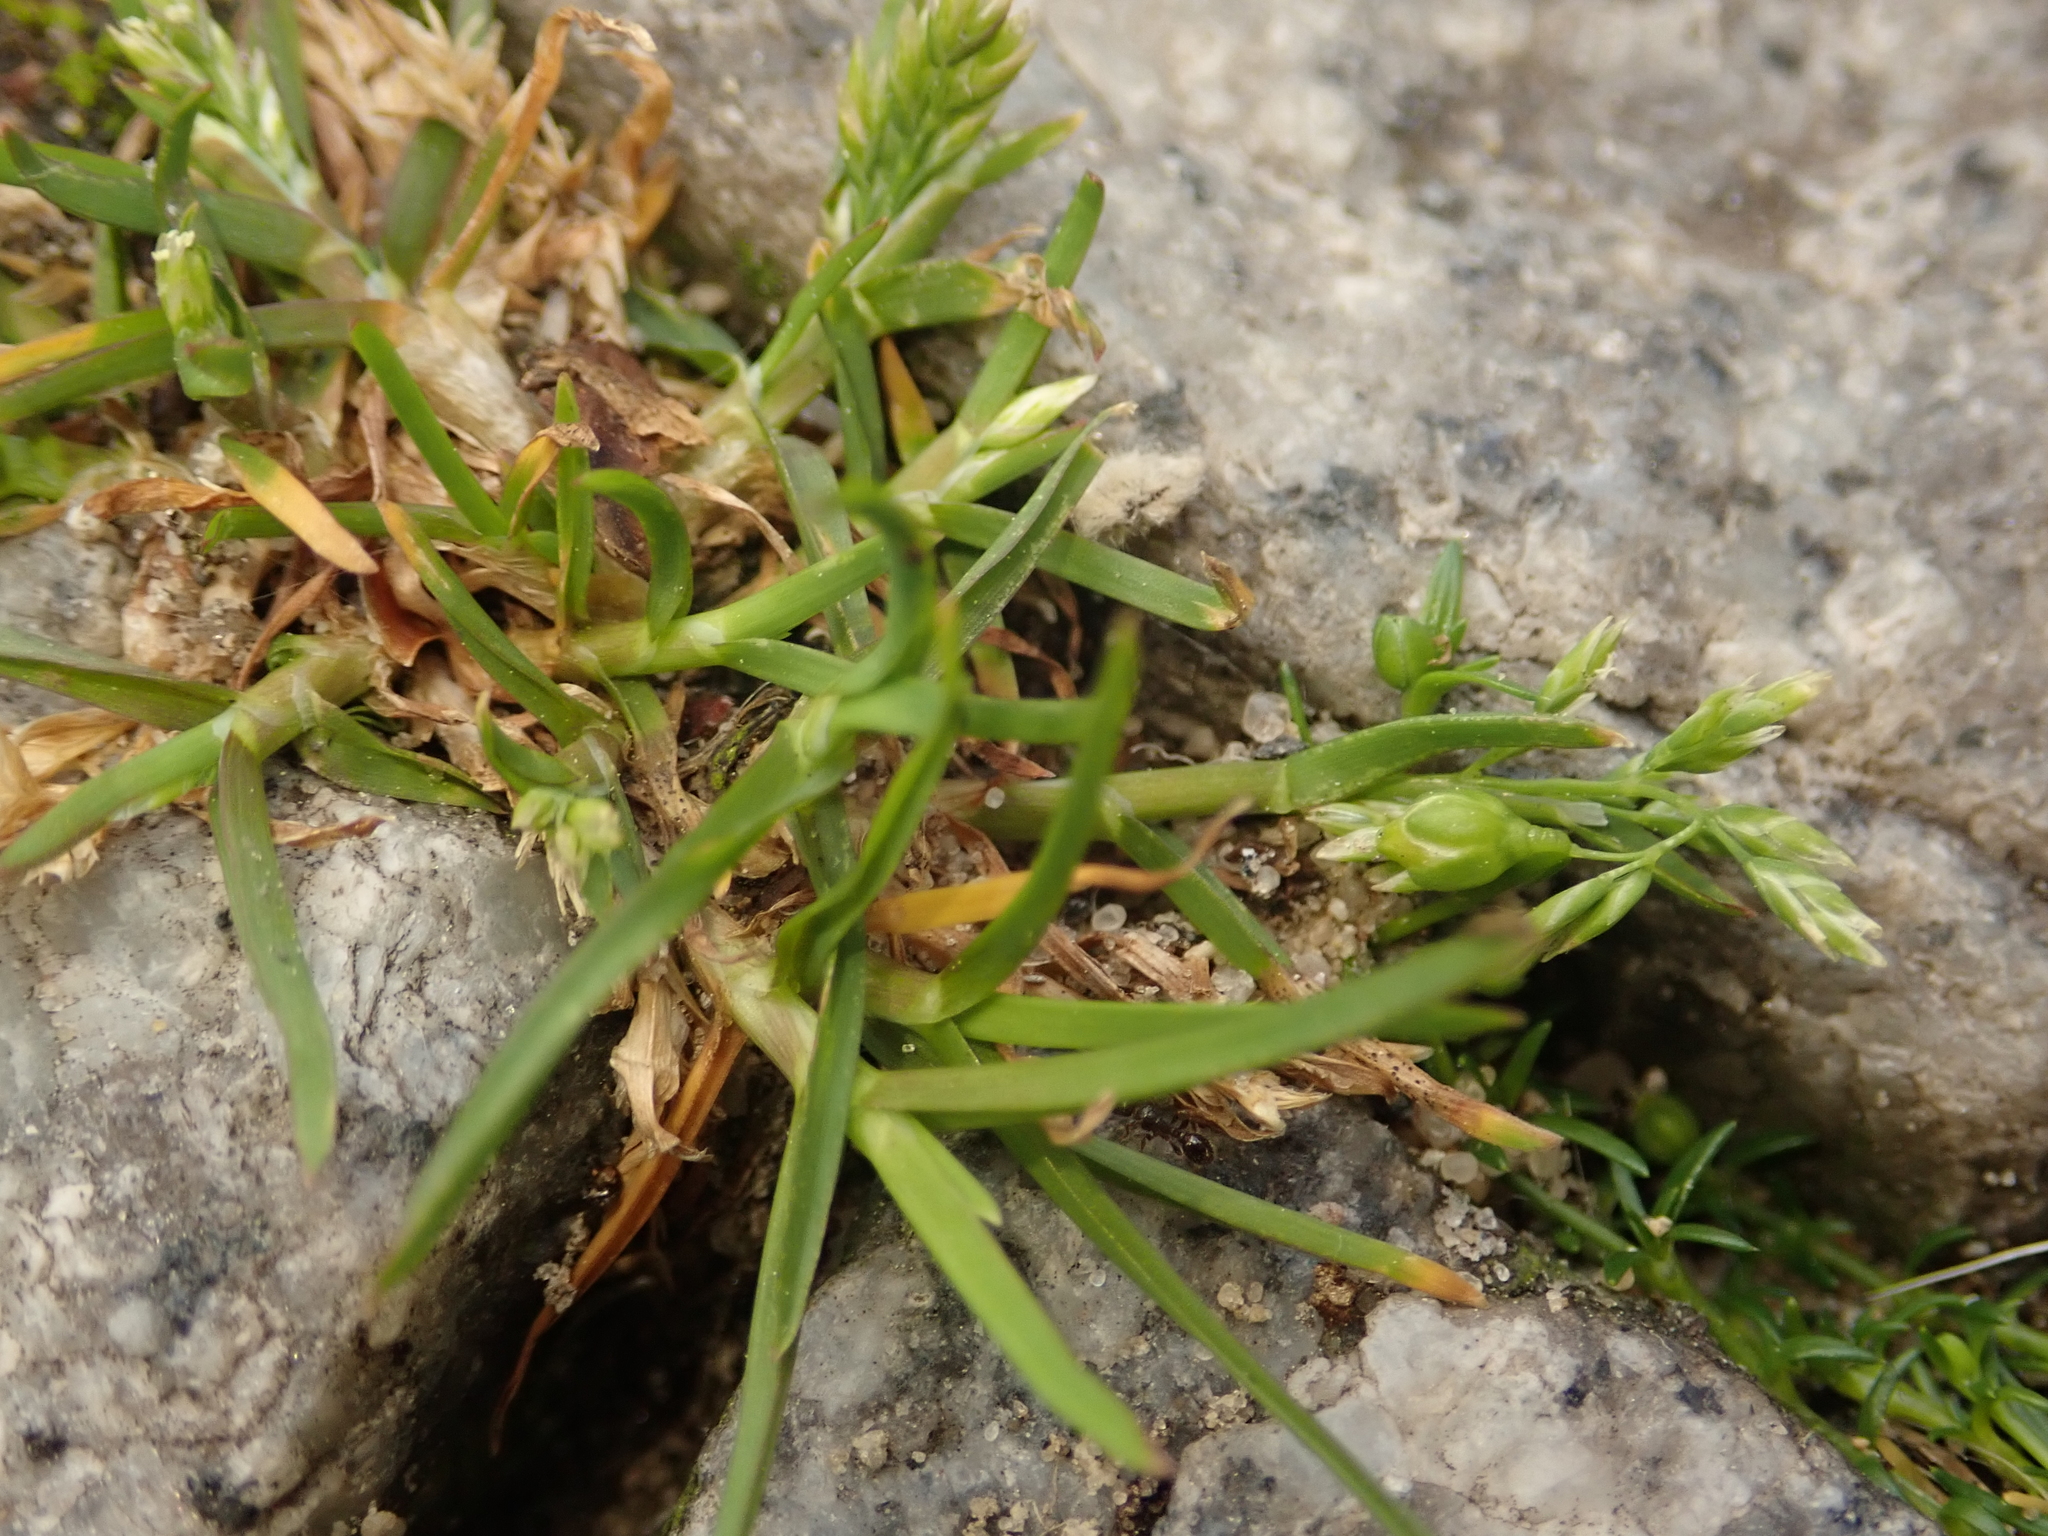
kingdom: Plantae
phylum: Tracheophyta
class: Liliopsida
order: Poales
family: Poaceae
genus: Poa
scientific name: Poa annua
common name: Annual bluegrass
